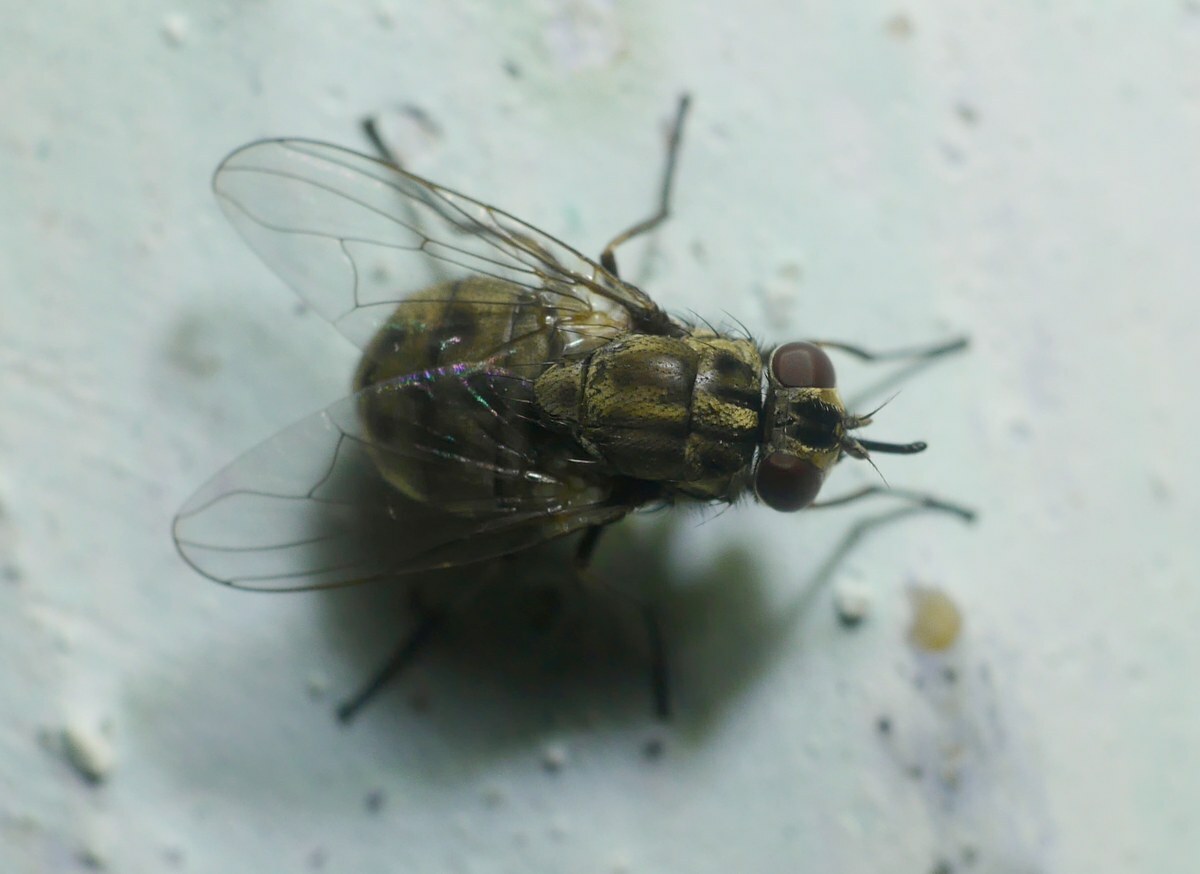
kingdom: Animalia
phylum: Arthropoda
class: Insecta
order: Diptera
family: Muscidae
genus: Stomoxys
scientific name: Stomoxys calcitrans
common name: Stable fly
